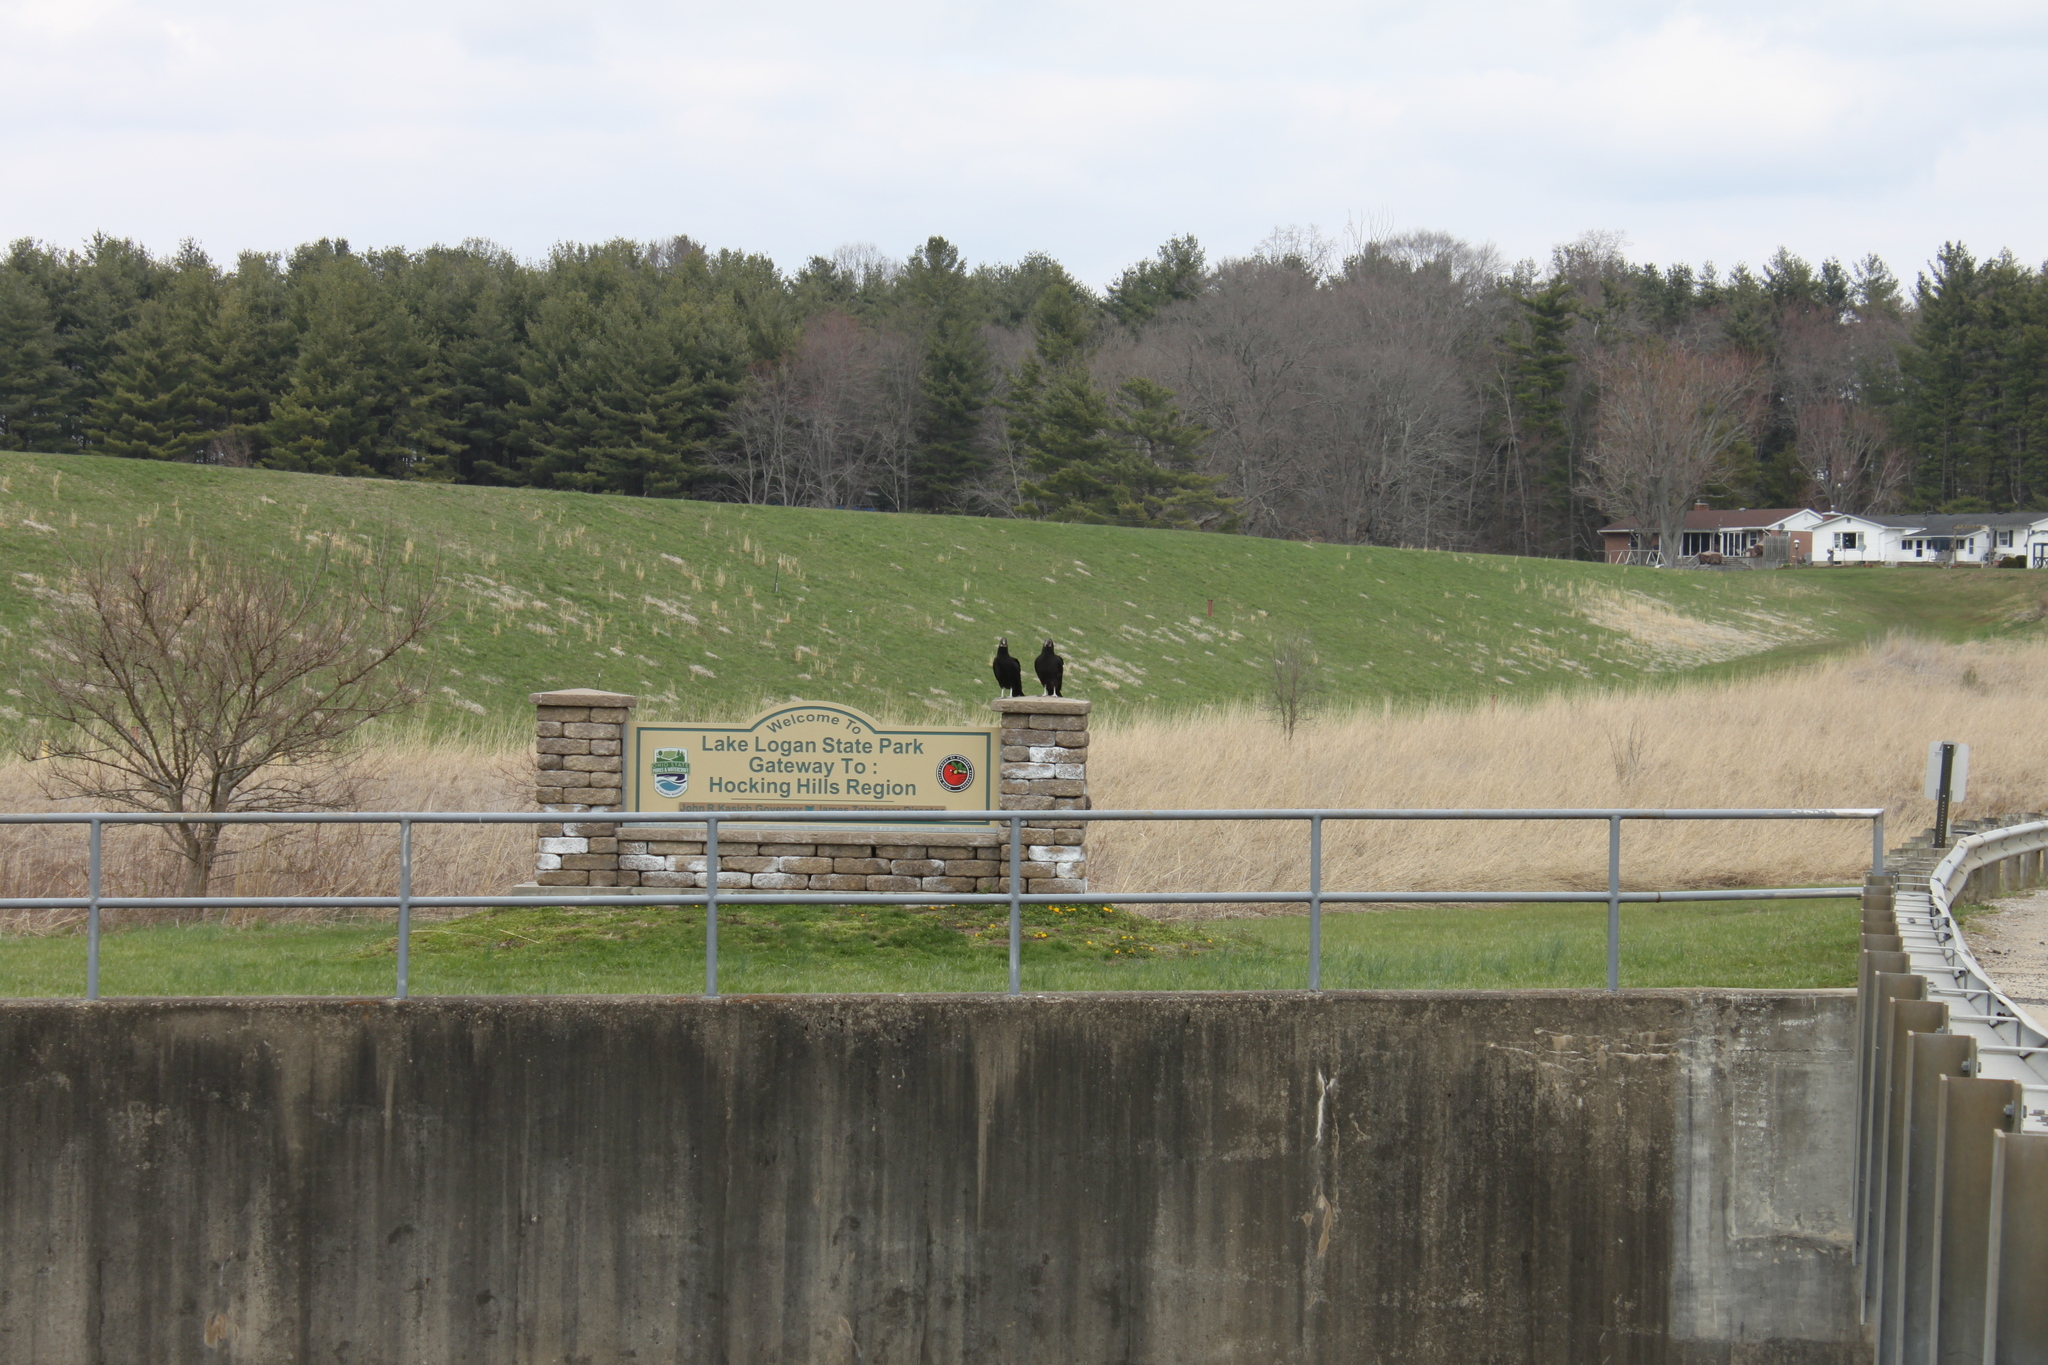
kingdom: Animalia
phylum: Chordata
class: Aves
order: Accipitriformes
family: Cathartidae
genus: Coragyps
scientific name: Coragyps atratus
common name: Black vulture
